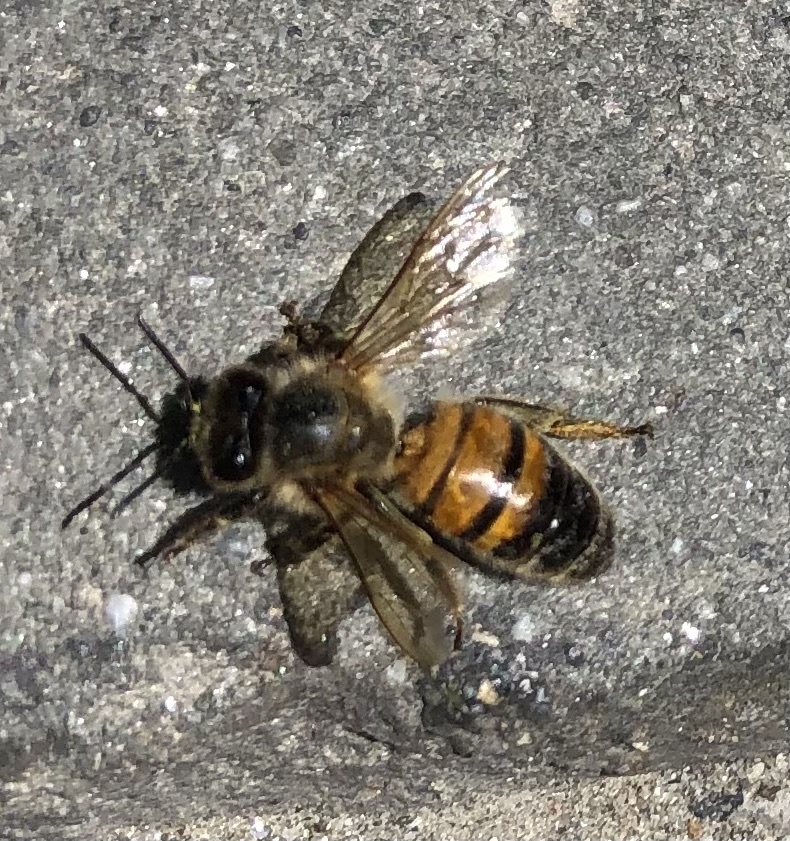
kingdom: Animalia
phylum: Arthropoda
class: Insecta
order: Hymenoptera
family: Apidae
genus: Apis
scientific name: Apis mellifera
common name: Honey bee
